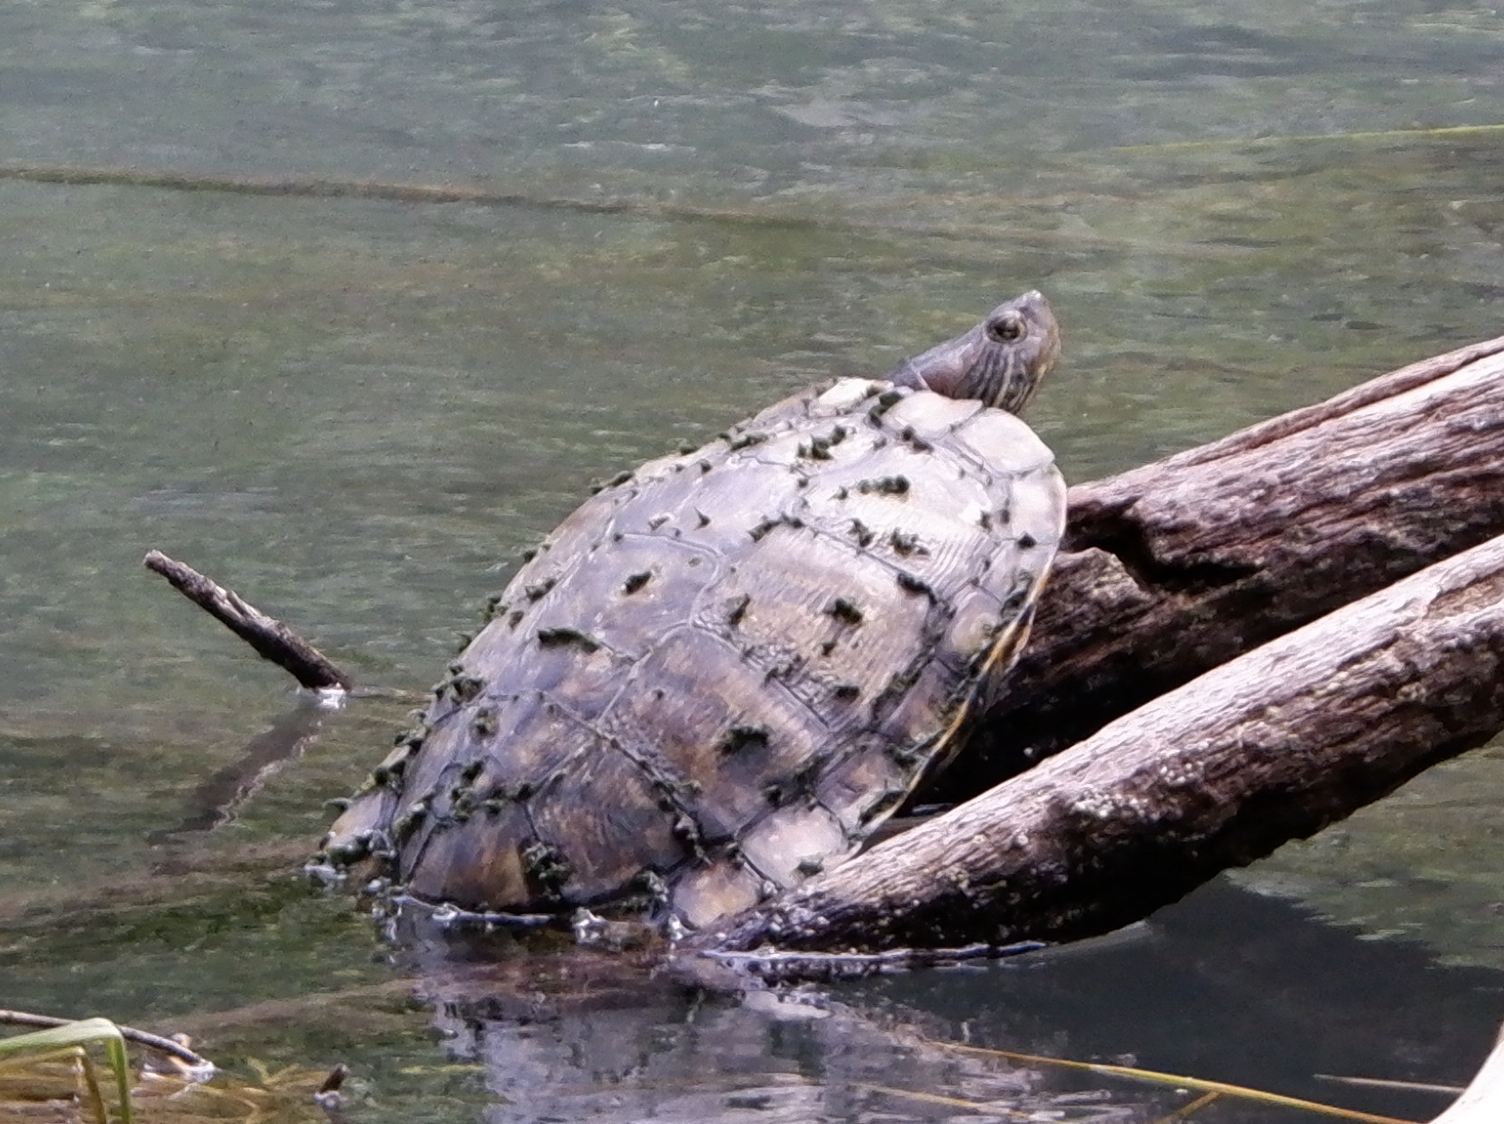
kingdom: Animalia
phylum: Chordata
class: Testudines
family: Emydidae
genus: Trachemys
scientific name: Trachemys scripta
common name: Slider
